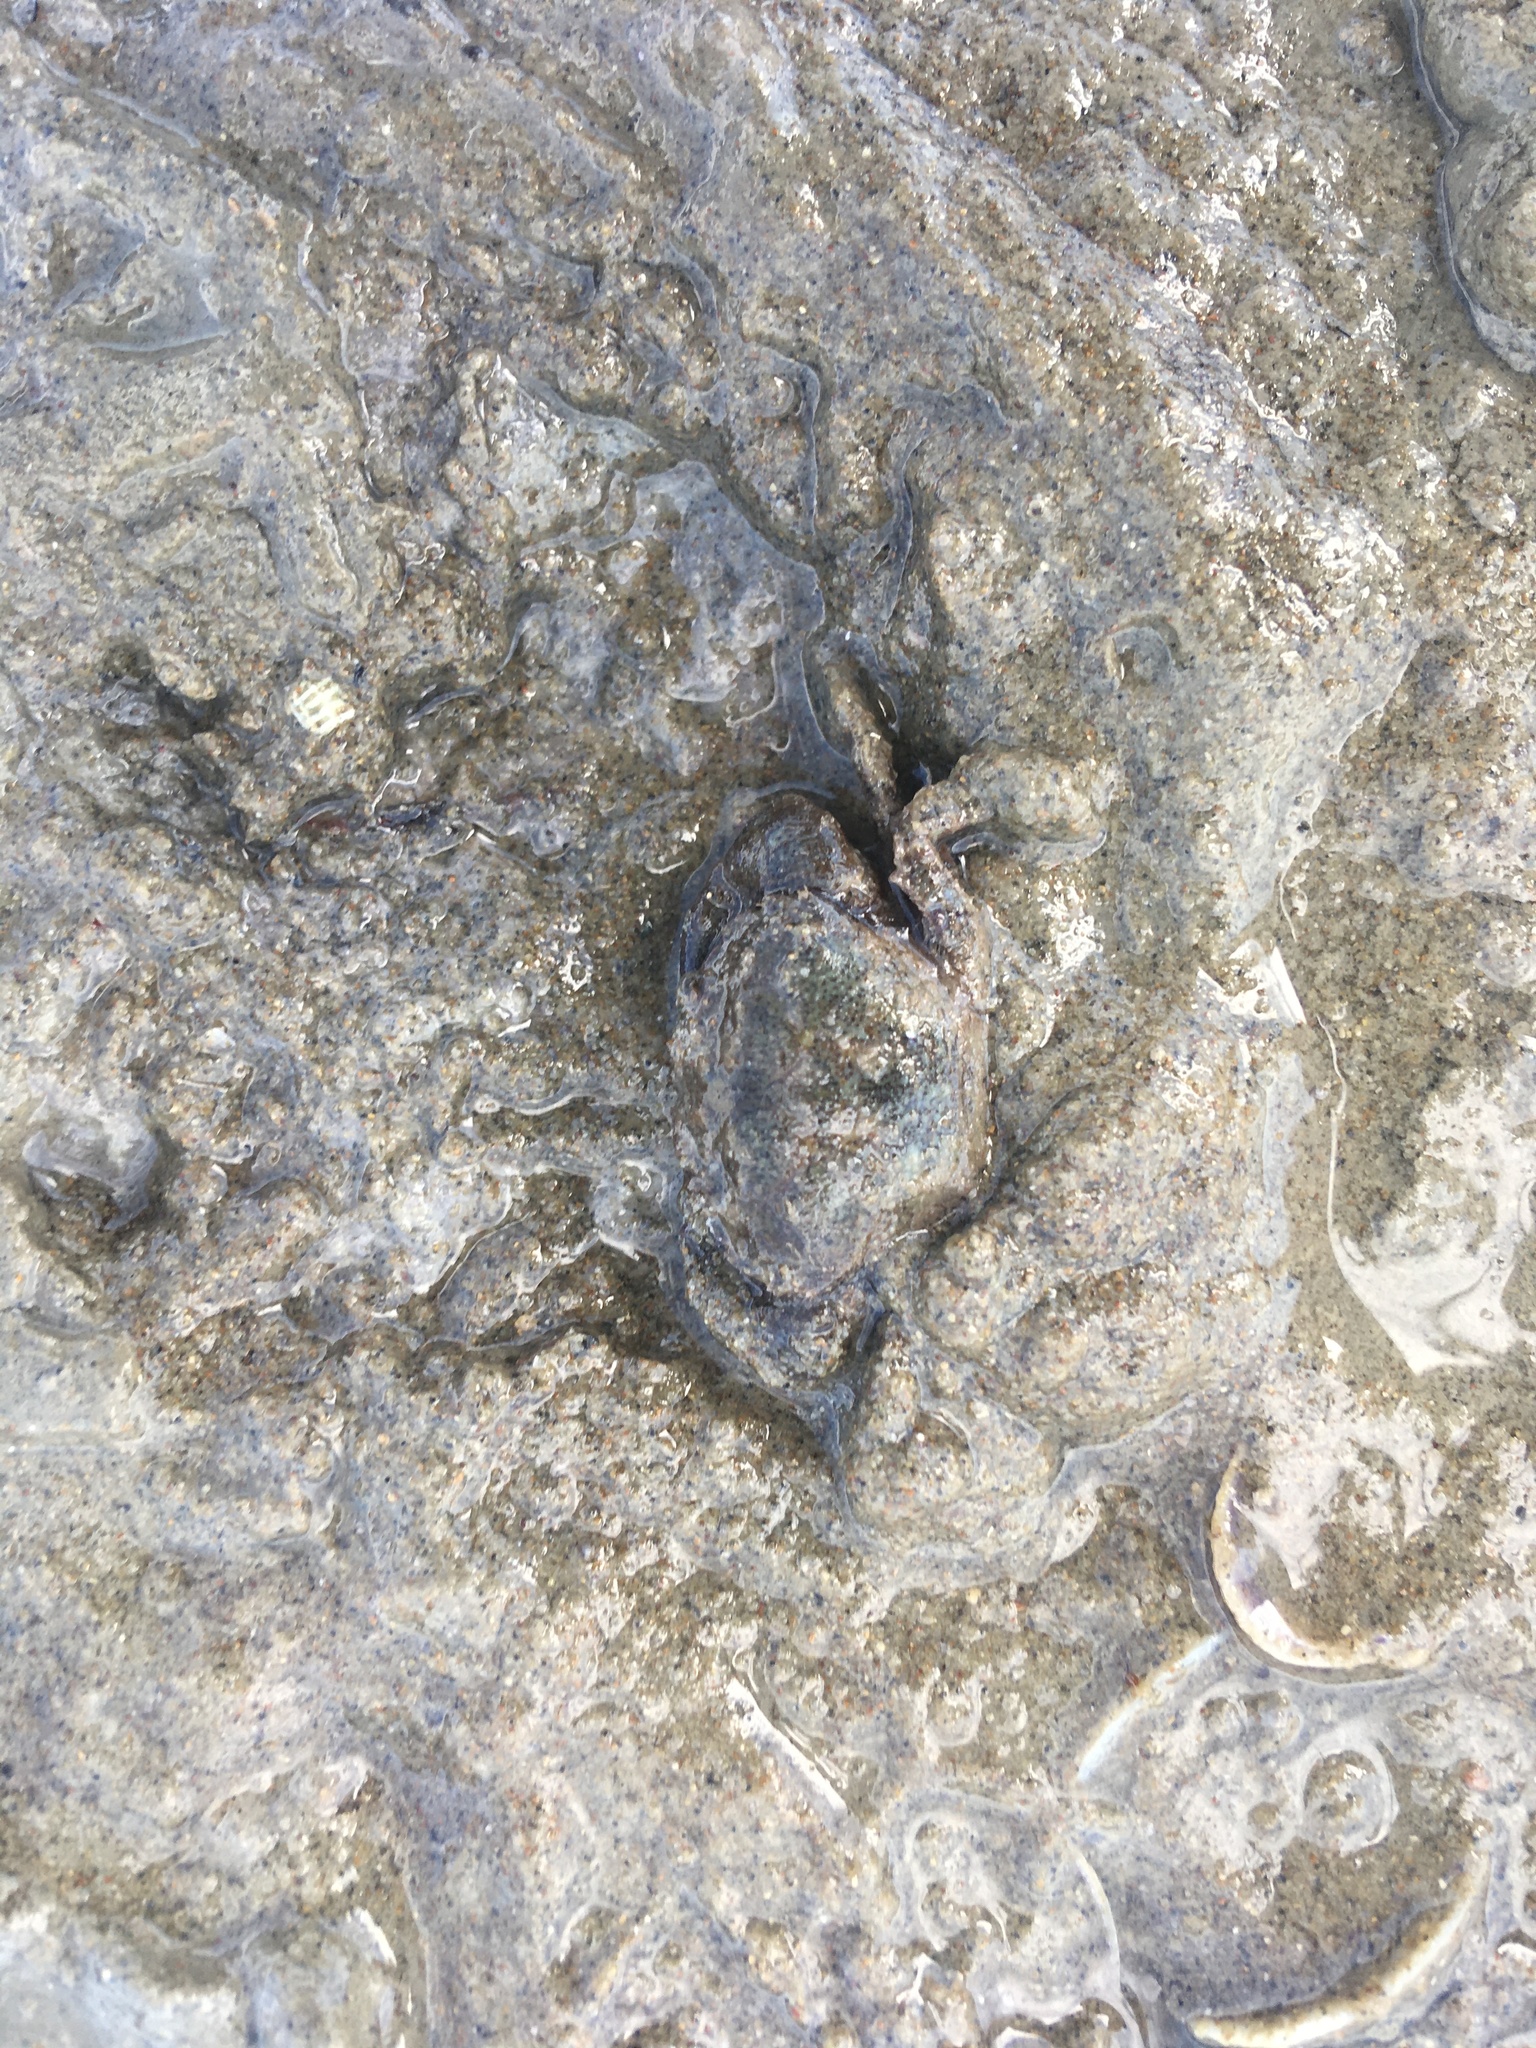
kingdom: Animalia
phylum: Arthropoda
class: Malacostraca
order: Decapoda
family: Pilumnidae
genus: Pilumnopeus
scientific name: Pilumnopeus serratifrons
